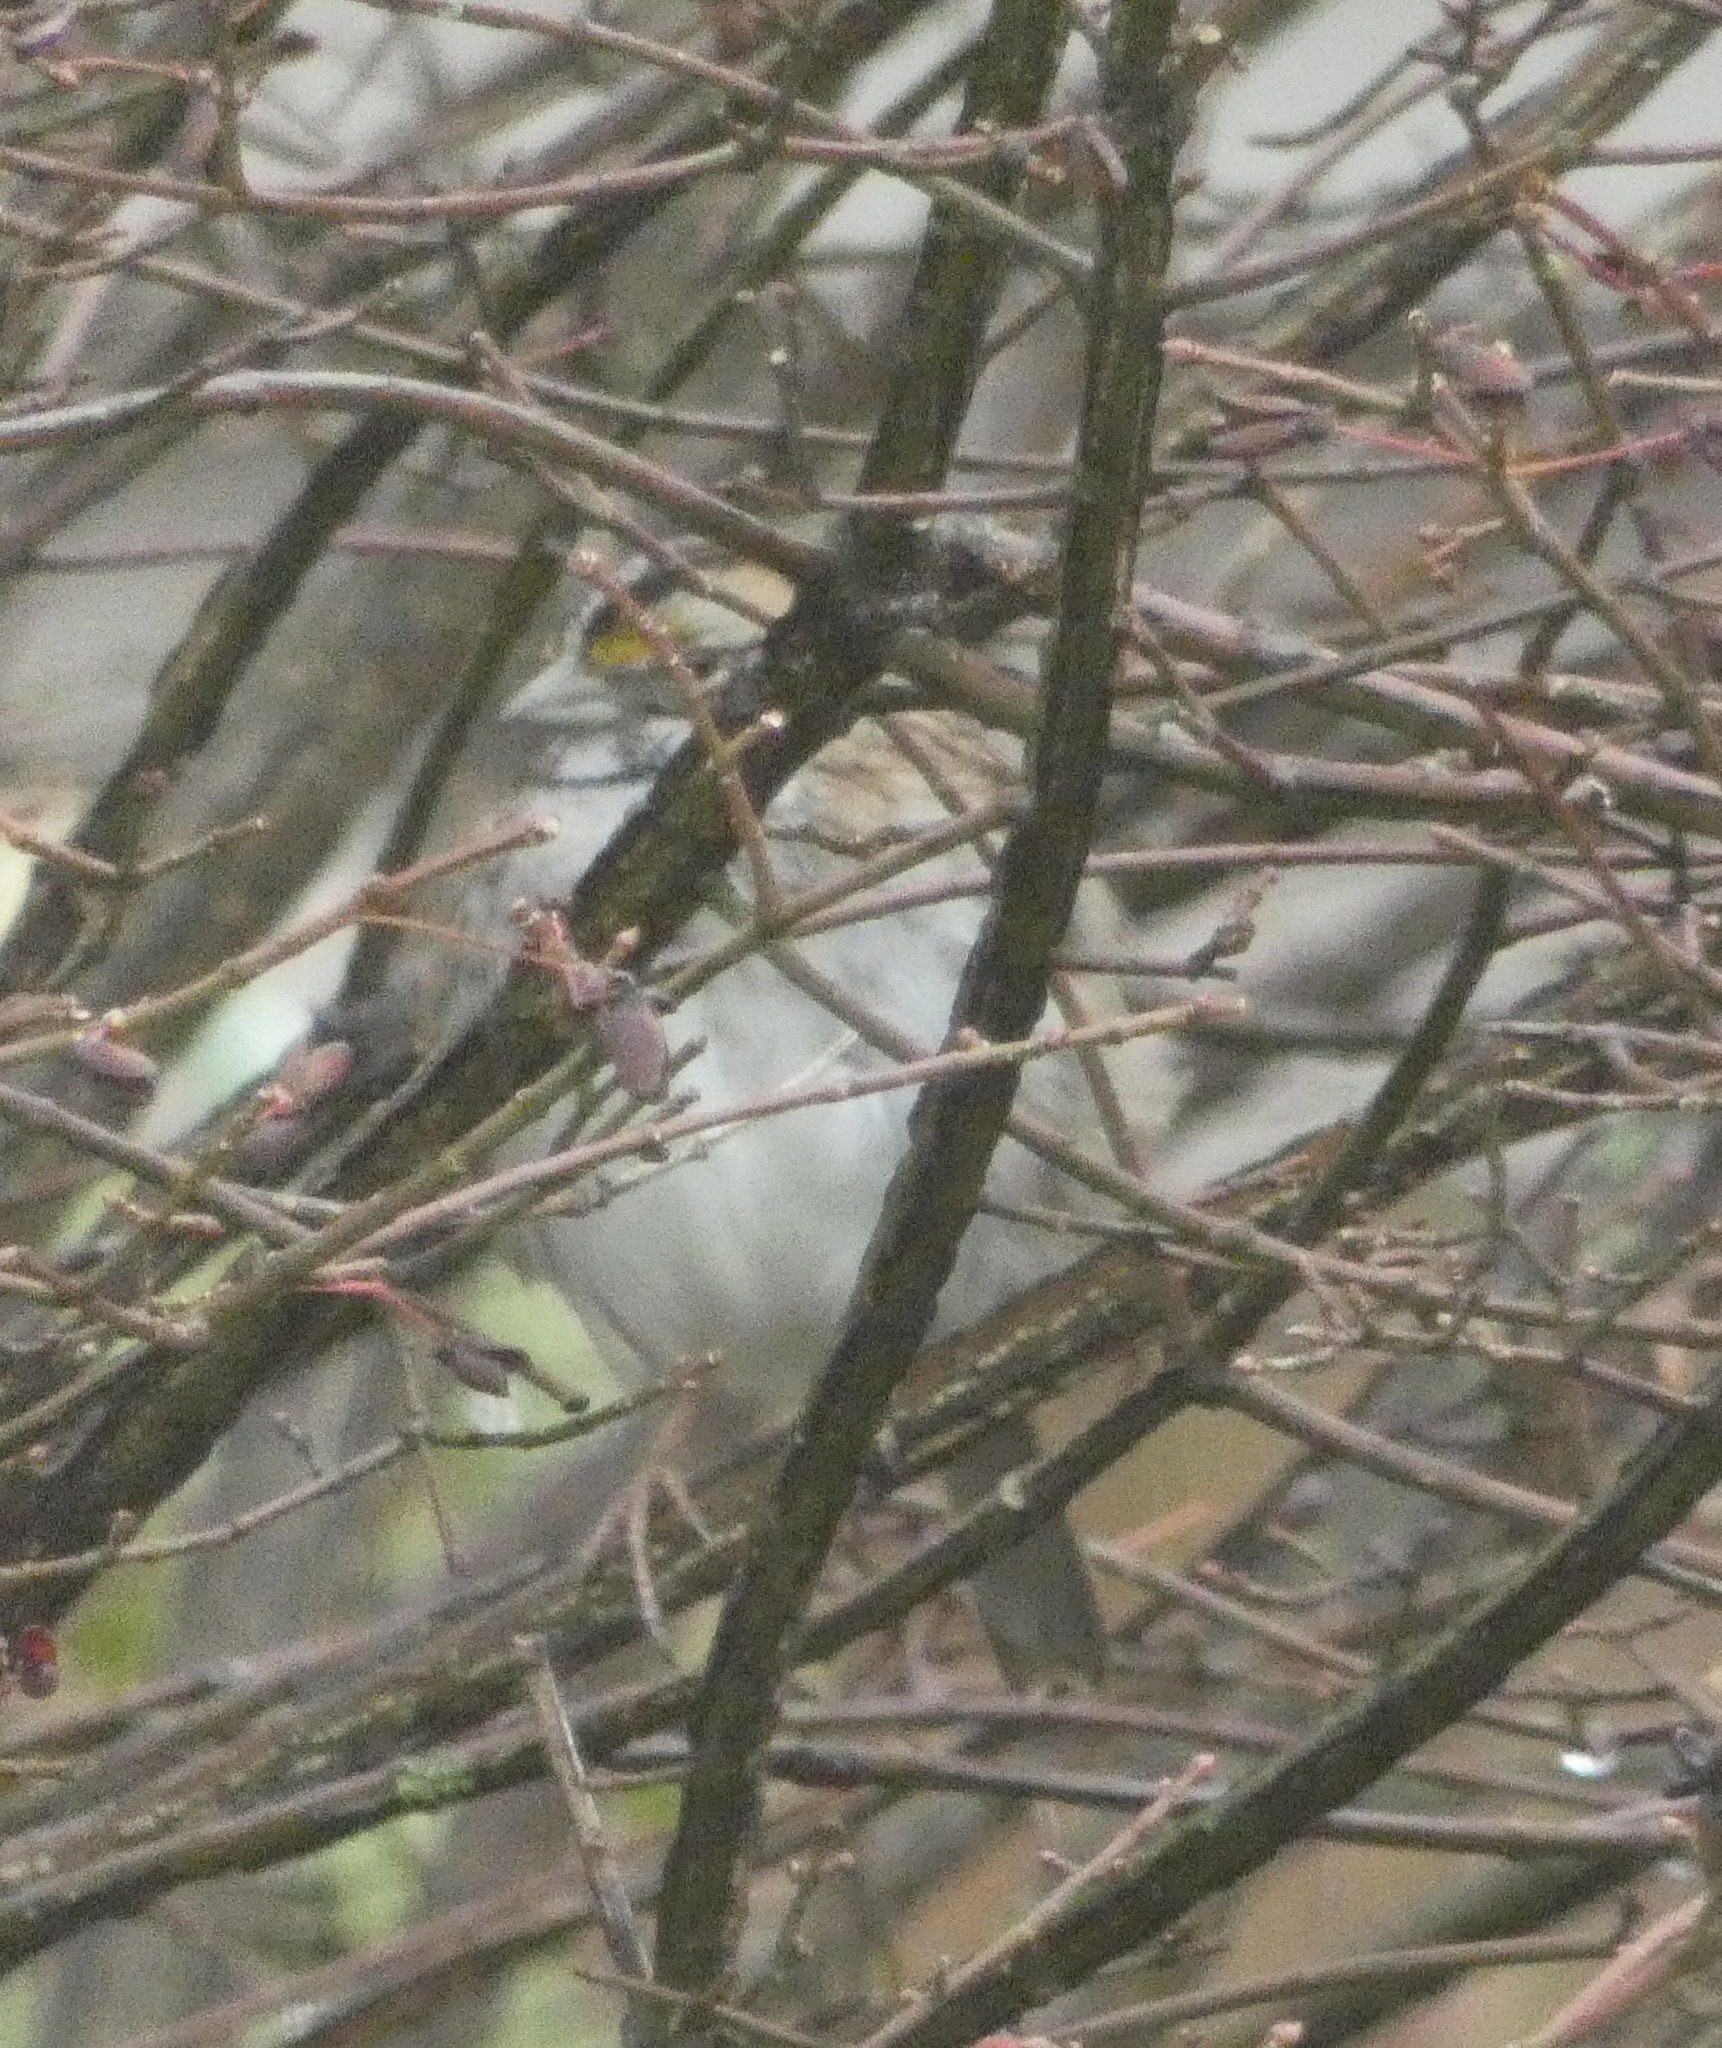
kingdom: Animalia
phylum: Chordata
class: Aves
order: Passeriformes
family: Passerellidae
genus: Zonotrichia
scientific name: Zonotrichia albicollis
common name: White-throated sparrow
